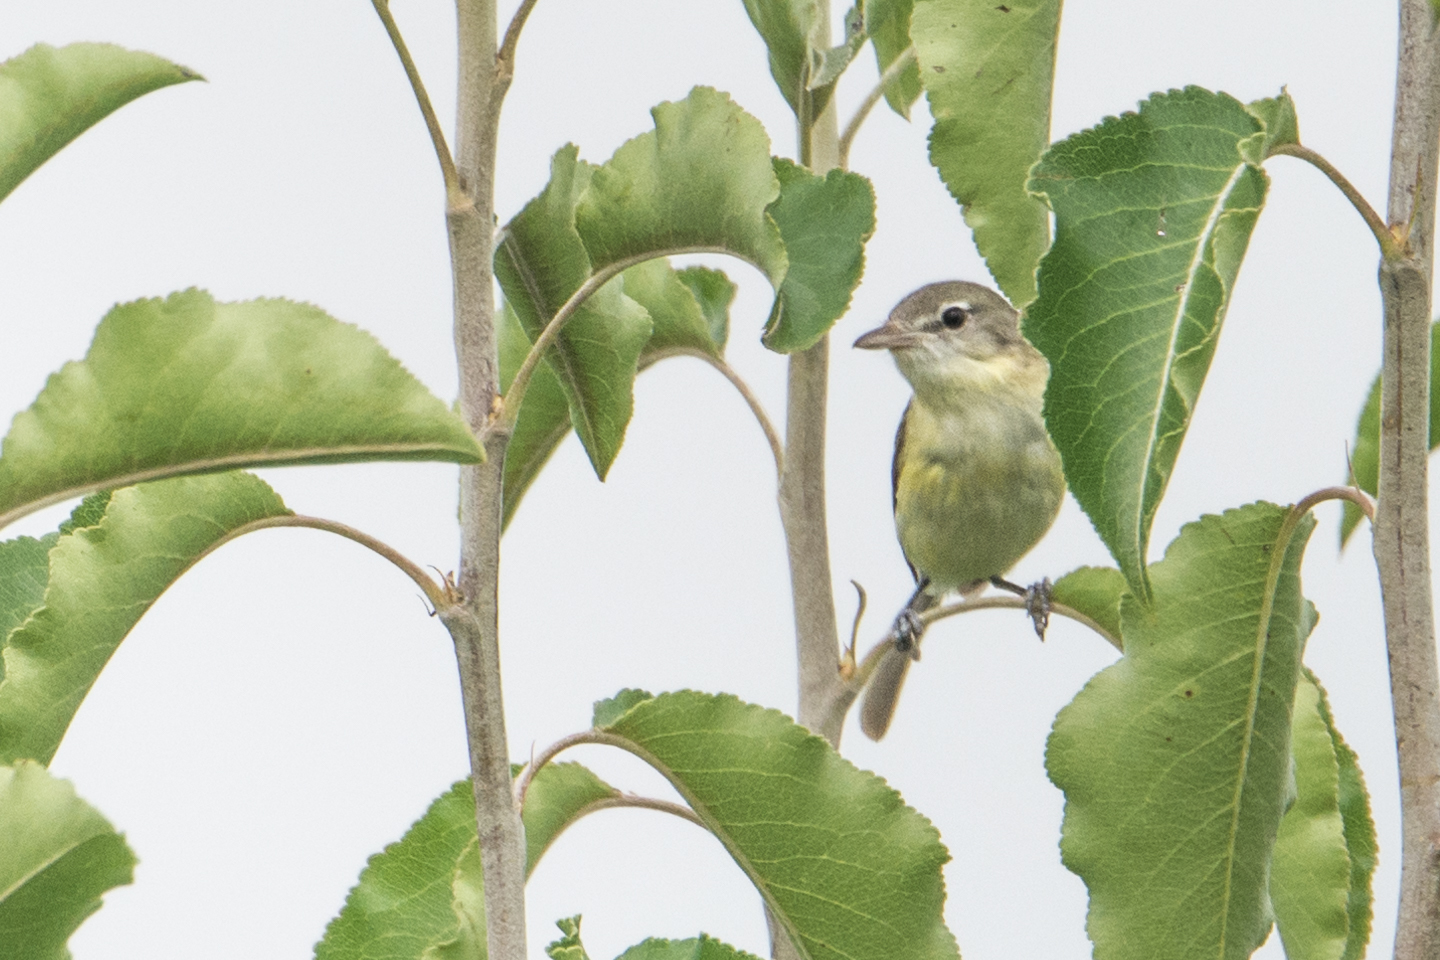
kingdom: Animalia
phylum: Chordata
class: Aves
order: Passeriformes
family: Vireonidae
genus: Vireo
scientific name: Vireo bellii
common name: Bell's vireo
